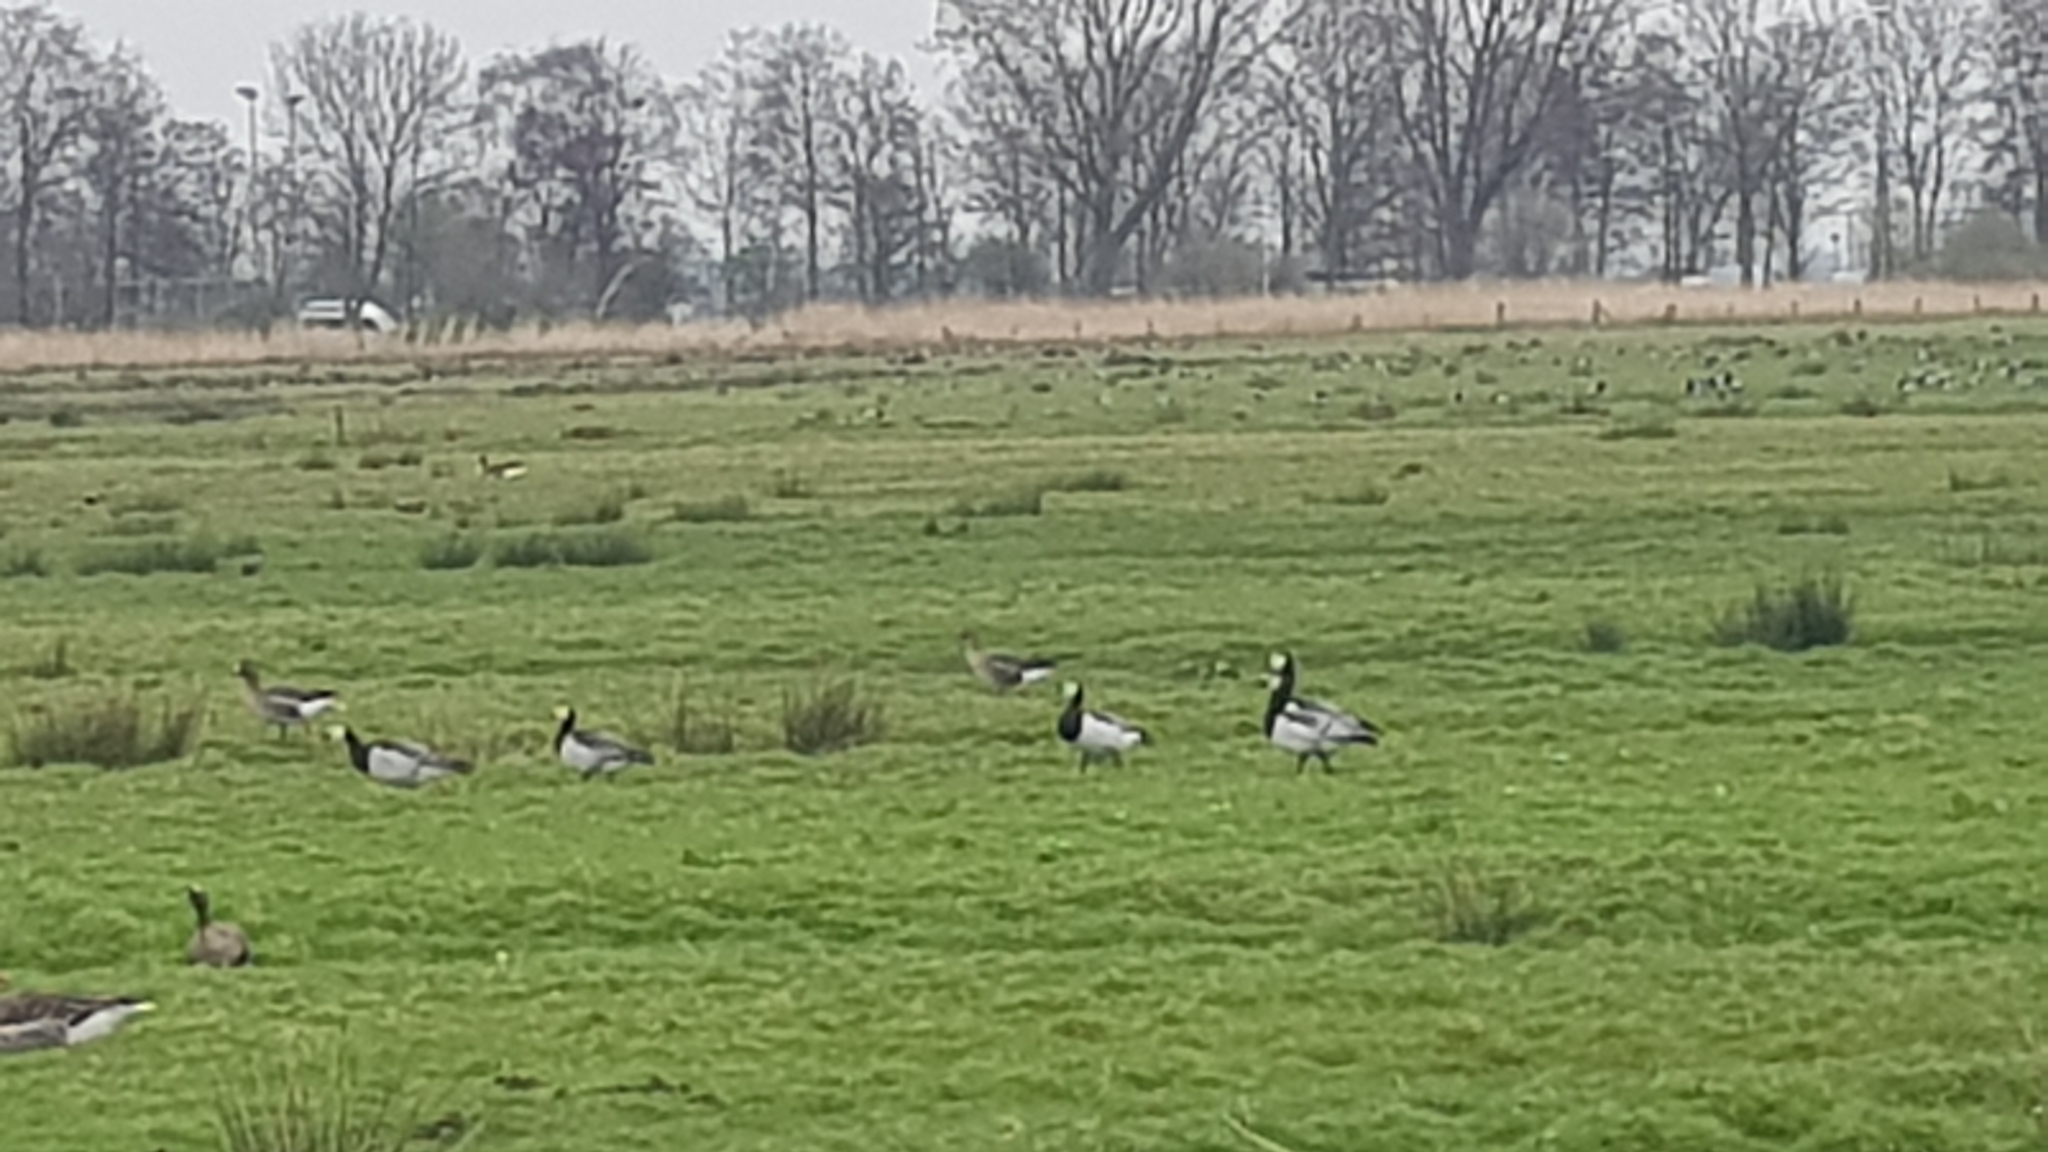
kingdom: Animalia
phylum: Chordata
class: Aves
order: Anseriformes
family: Anatidae
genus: Branta
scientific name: Branta leucopsis
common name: Barnacle goose
